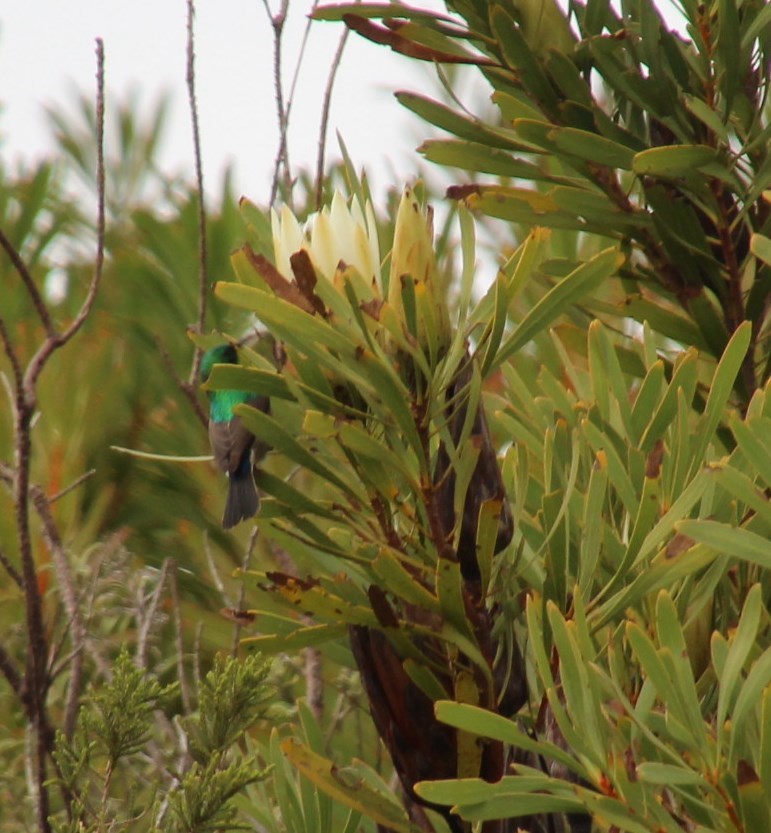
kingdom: Plantae
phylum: Tracheophyta
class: Magnoliopsida
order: Proteales
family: Proteaceae
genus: Protea
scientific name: Protea repens
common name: Sugarbush
